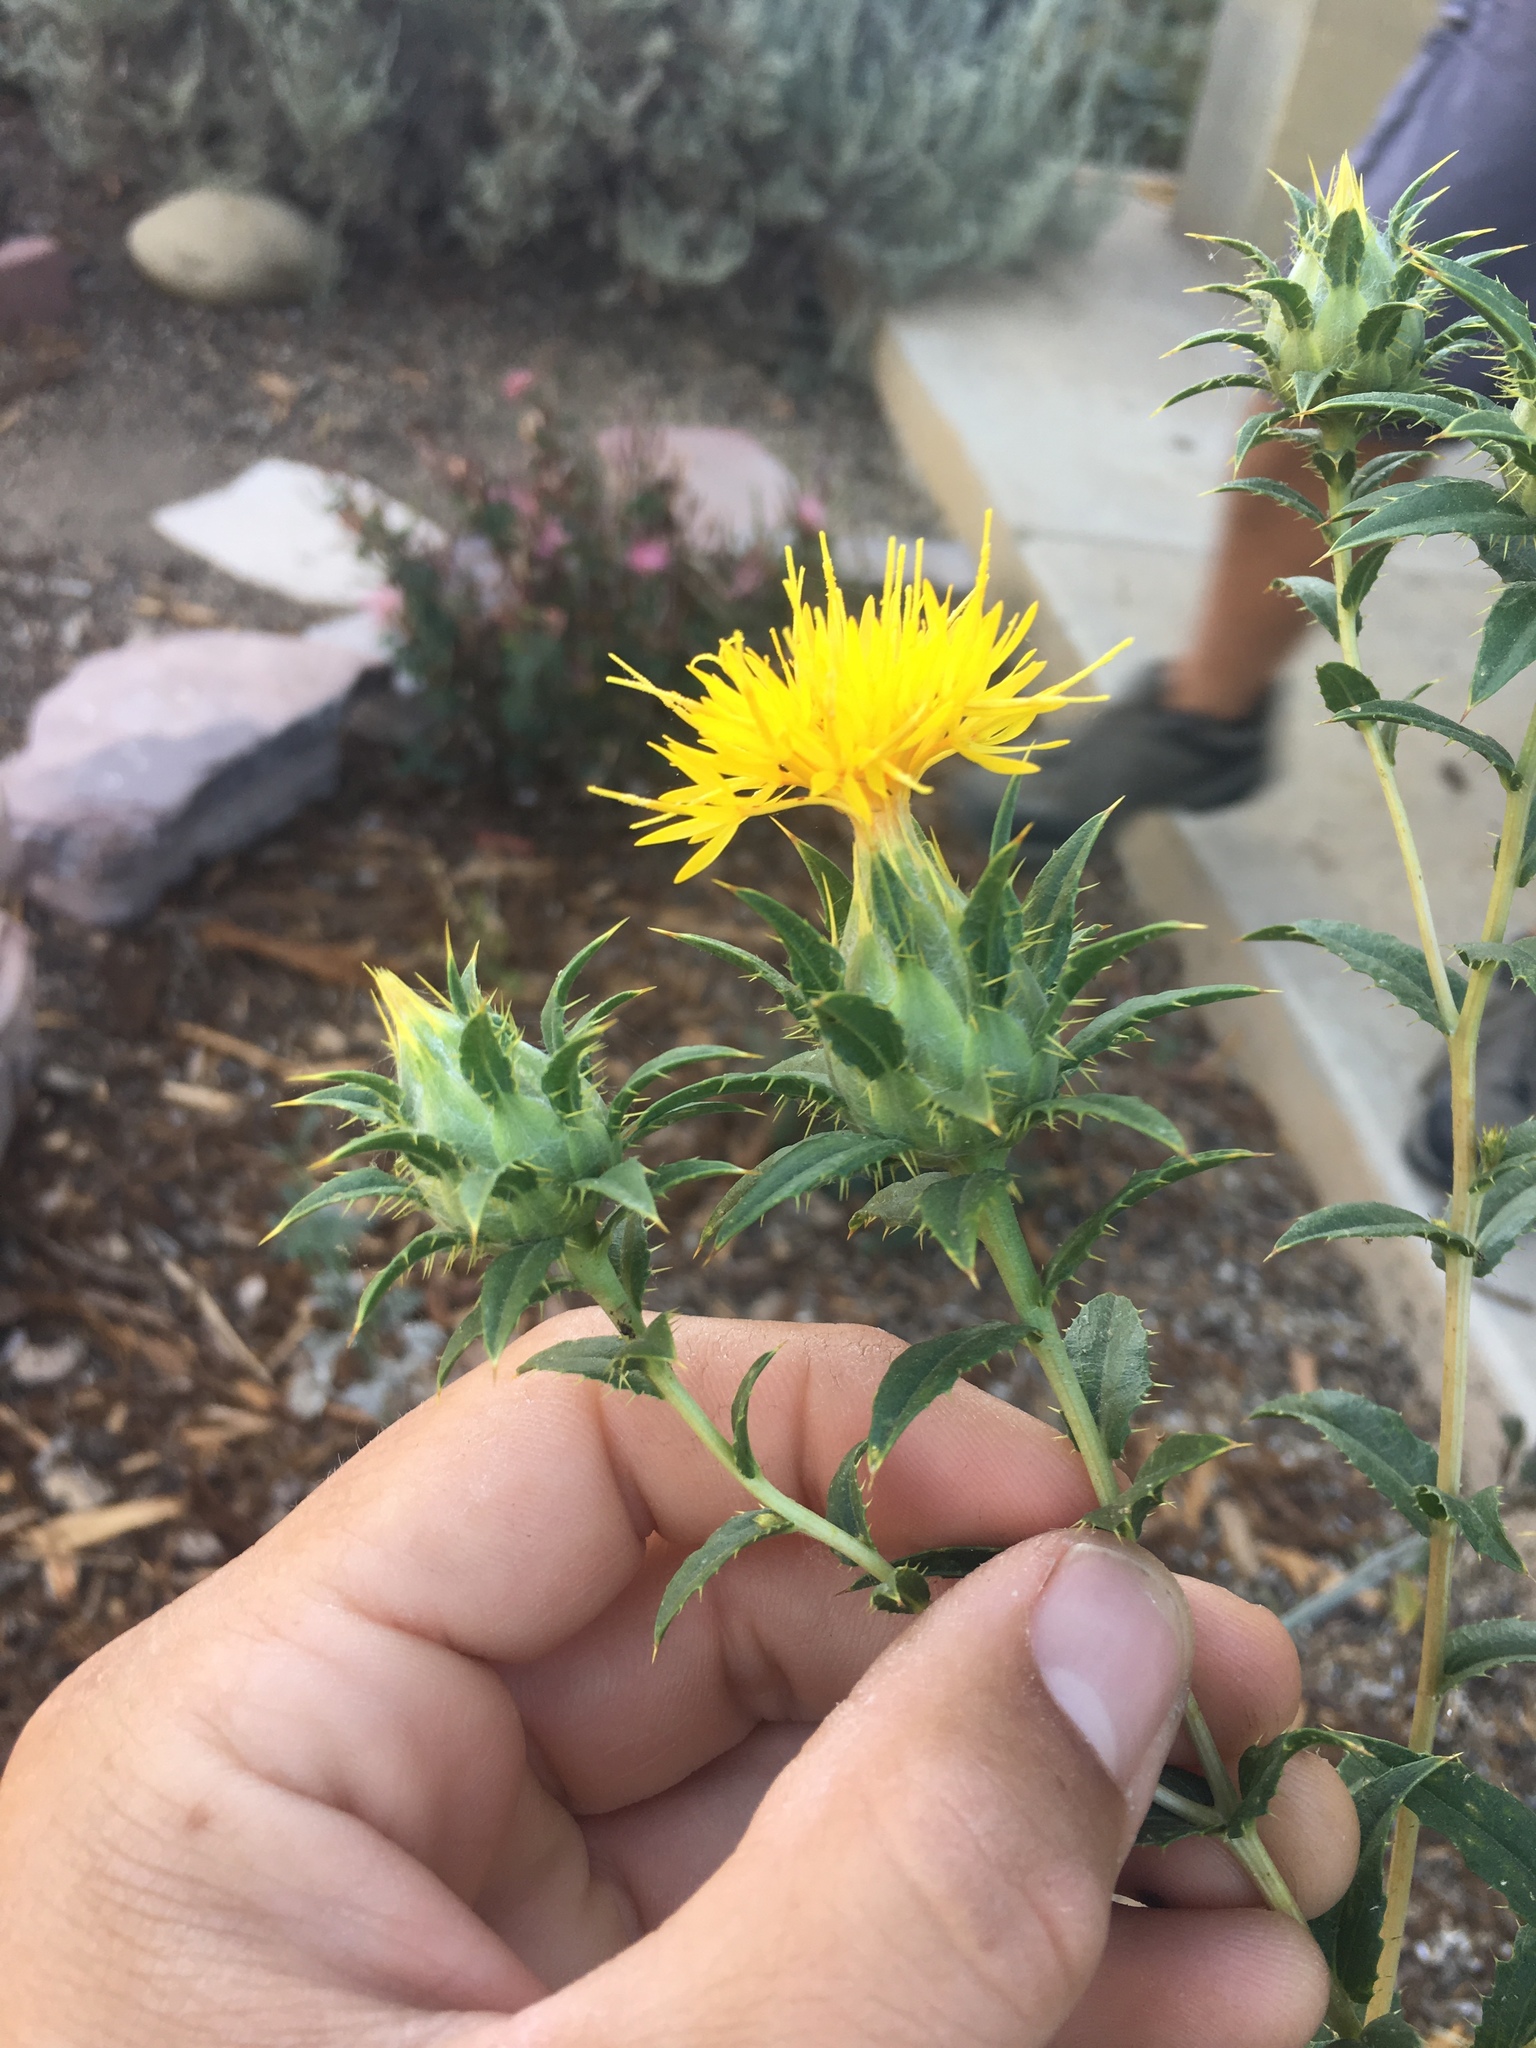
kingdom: Plantae
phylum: Tracheophyta
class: Magnoliopsida
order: Asterales
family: Asteraceae
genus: Carthamus
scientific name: Carthamus tinctorius
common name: Safflower
